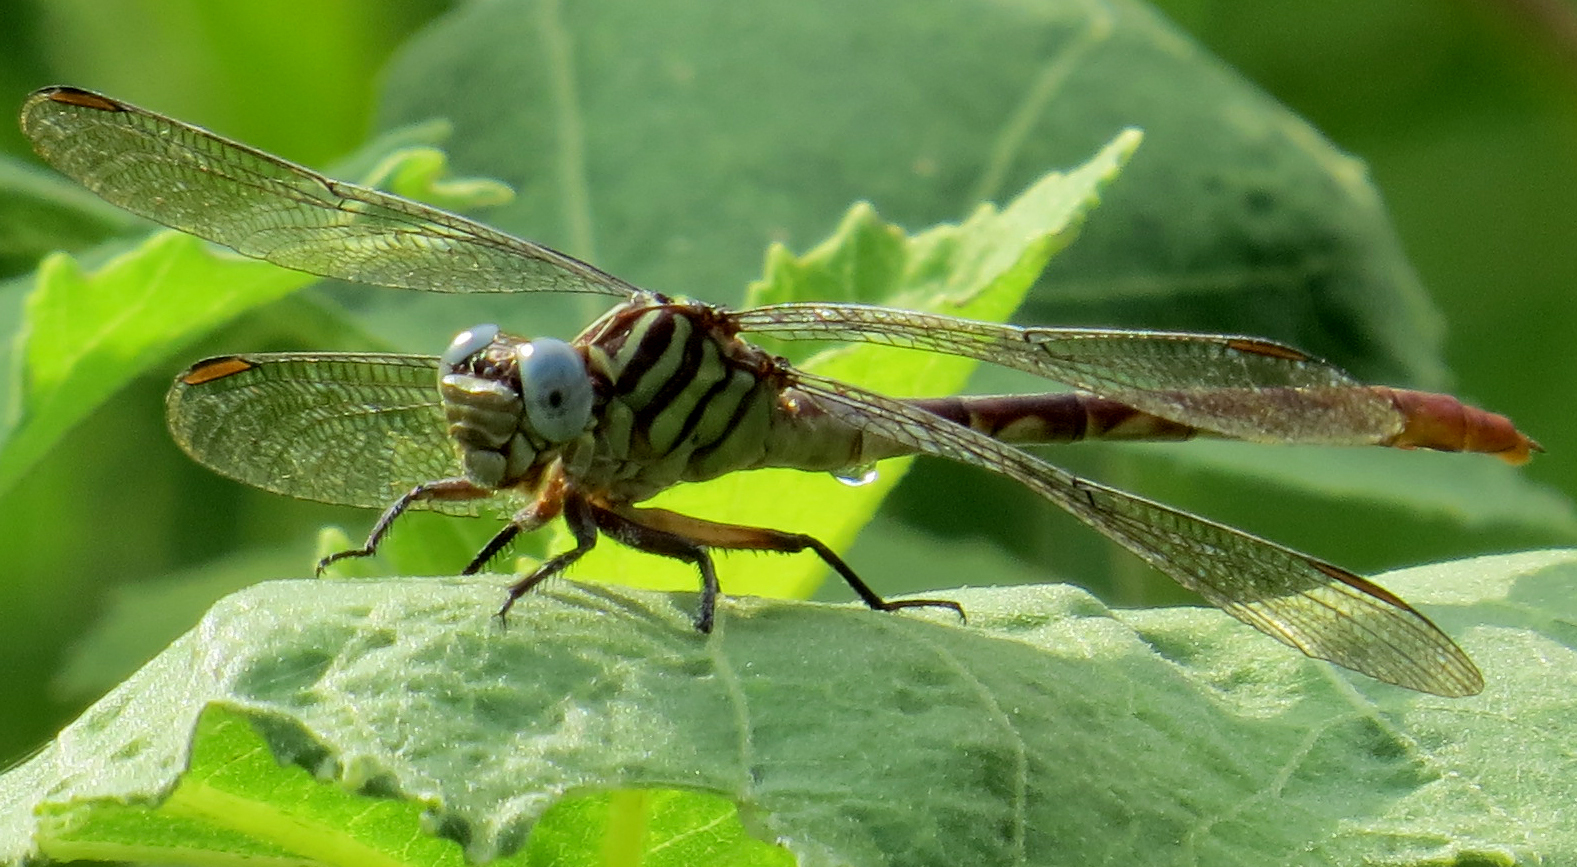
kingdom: Animalia
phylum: Arthropoda
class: Insecta
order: Odonata
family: Gomphidae
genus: Stylurus
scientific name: Stylurus plagiatus
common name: Russet-tipped clubtail
